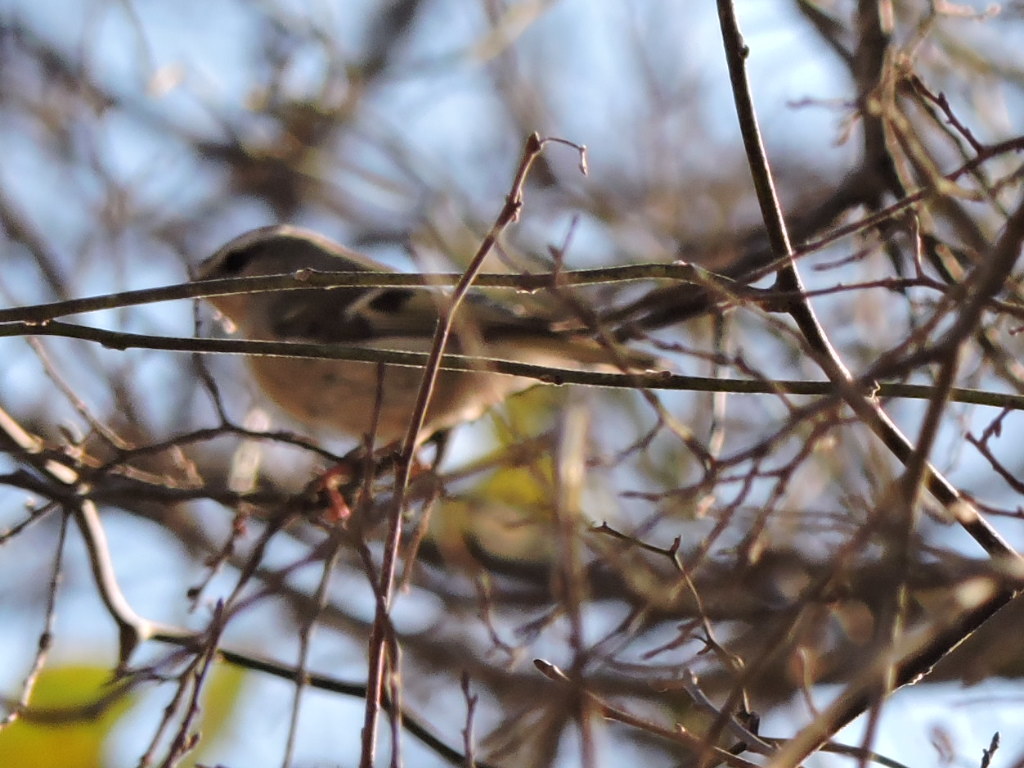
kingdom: Animalia
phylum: Chordata
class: Aves
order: Passeriformes
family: Regulidae
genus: Regulus
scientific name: Regulus satrapa
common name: Golden-crowned kinglet
